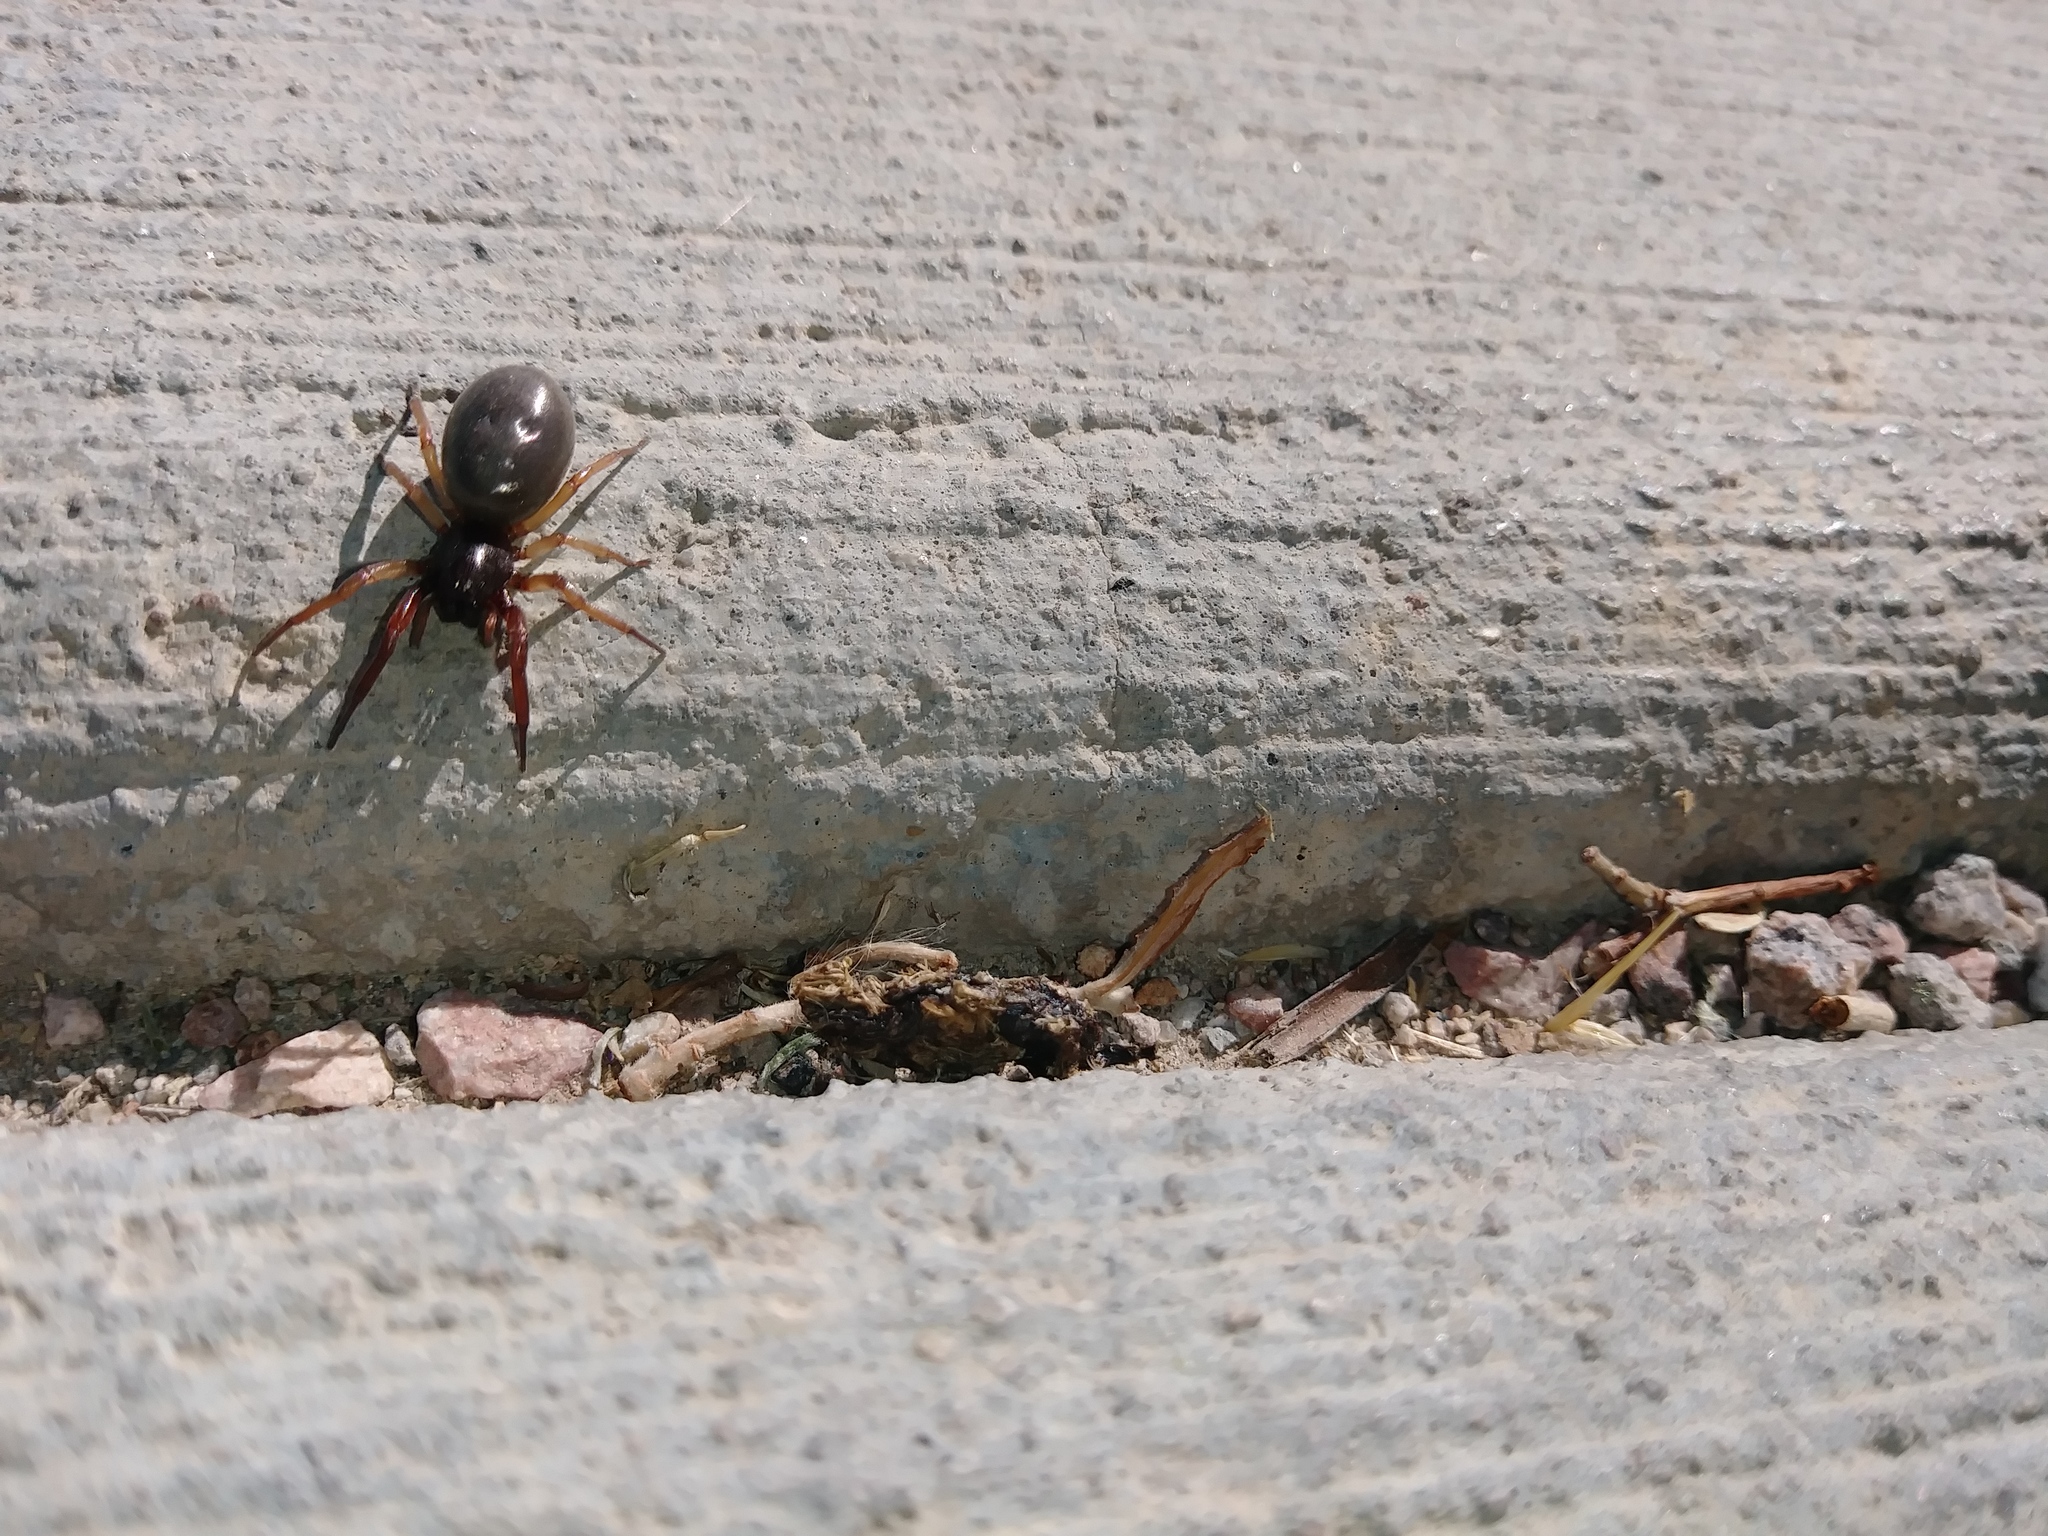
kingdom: Animalia
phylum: Arthropoda
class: Arachnida
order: Araneae
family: Trachelidae
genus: Trachelas
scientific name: Trachelas
